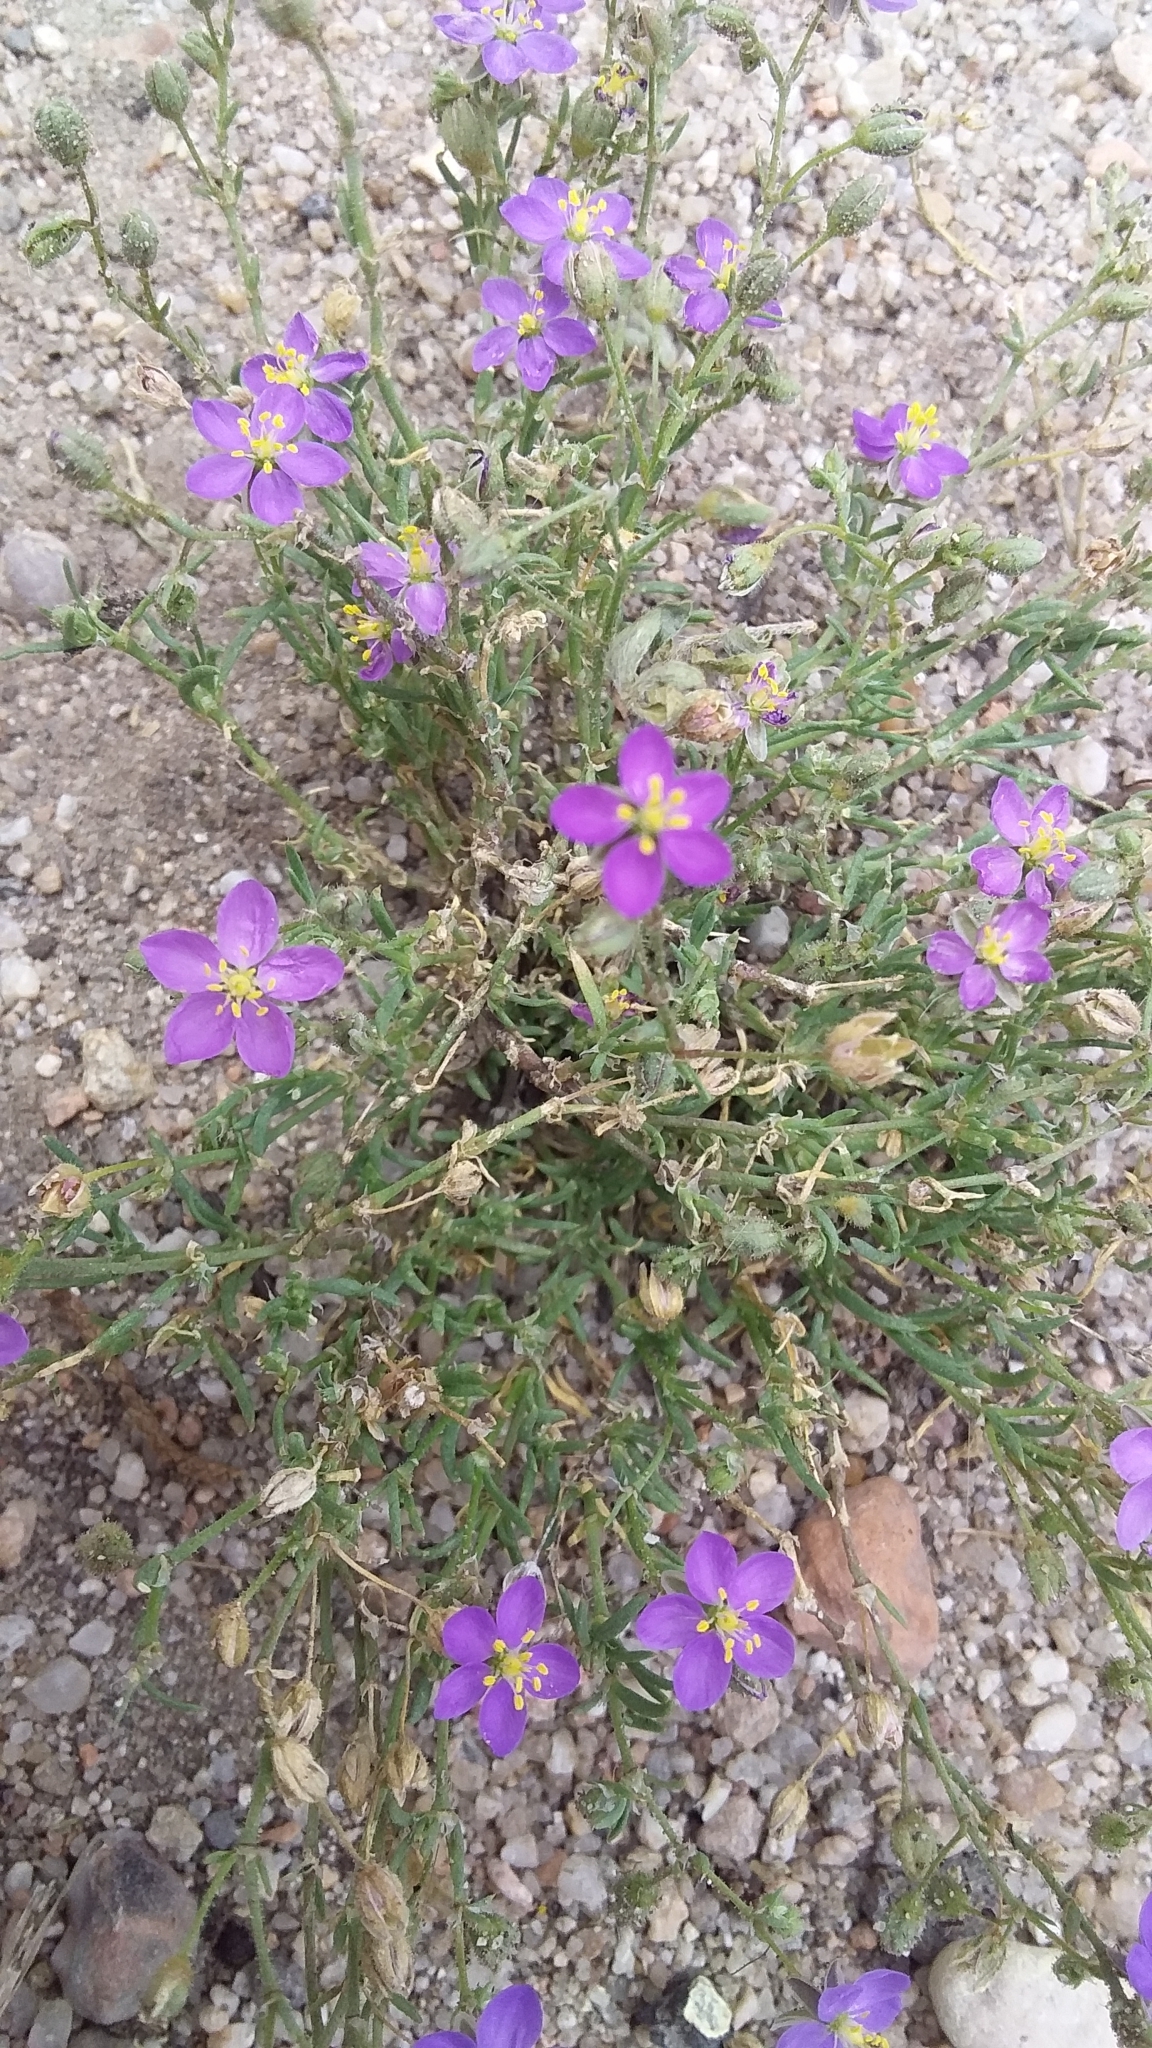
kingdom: Plantae
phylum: Tracheophyta
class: Magnoliopsida
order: Caryophyllales
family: Caryophyllaceae
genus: Spergularia
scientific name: Spergularia purpurea
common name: Purple sandspurry
